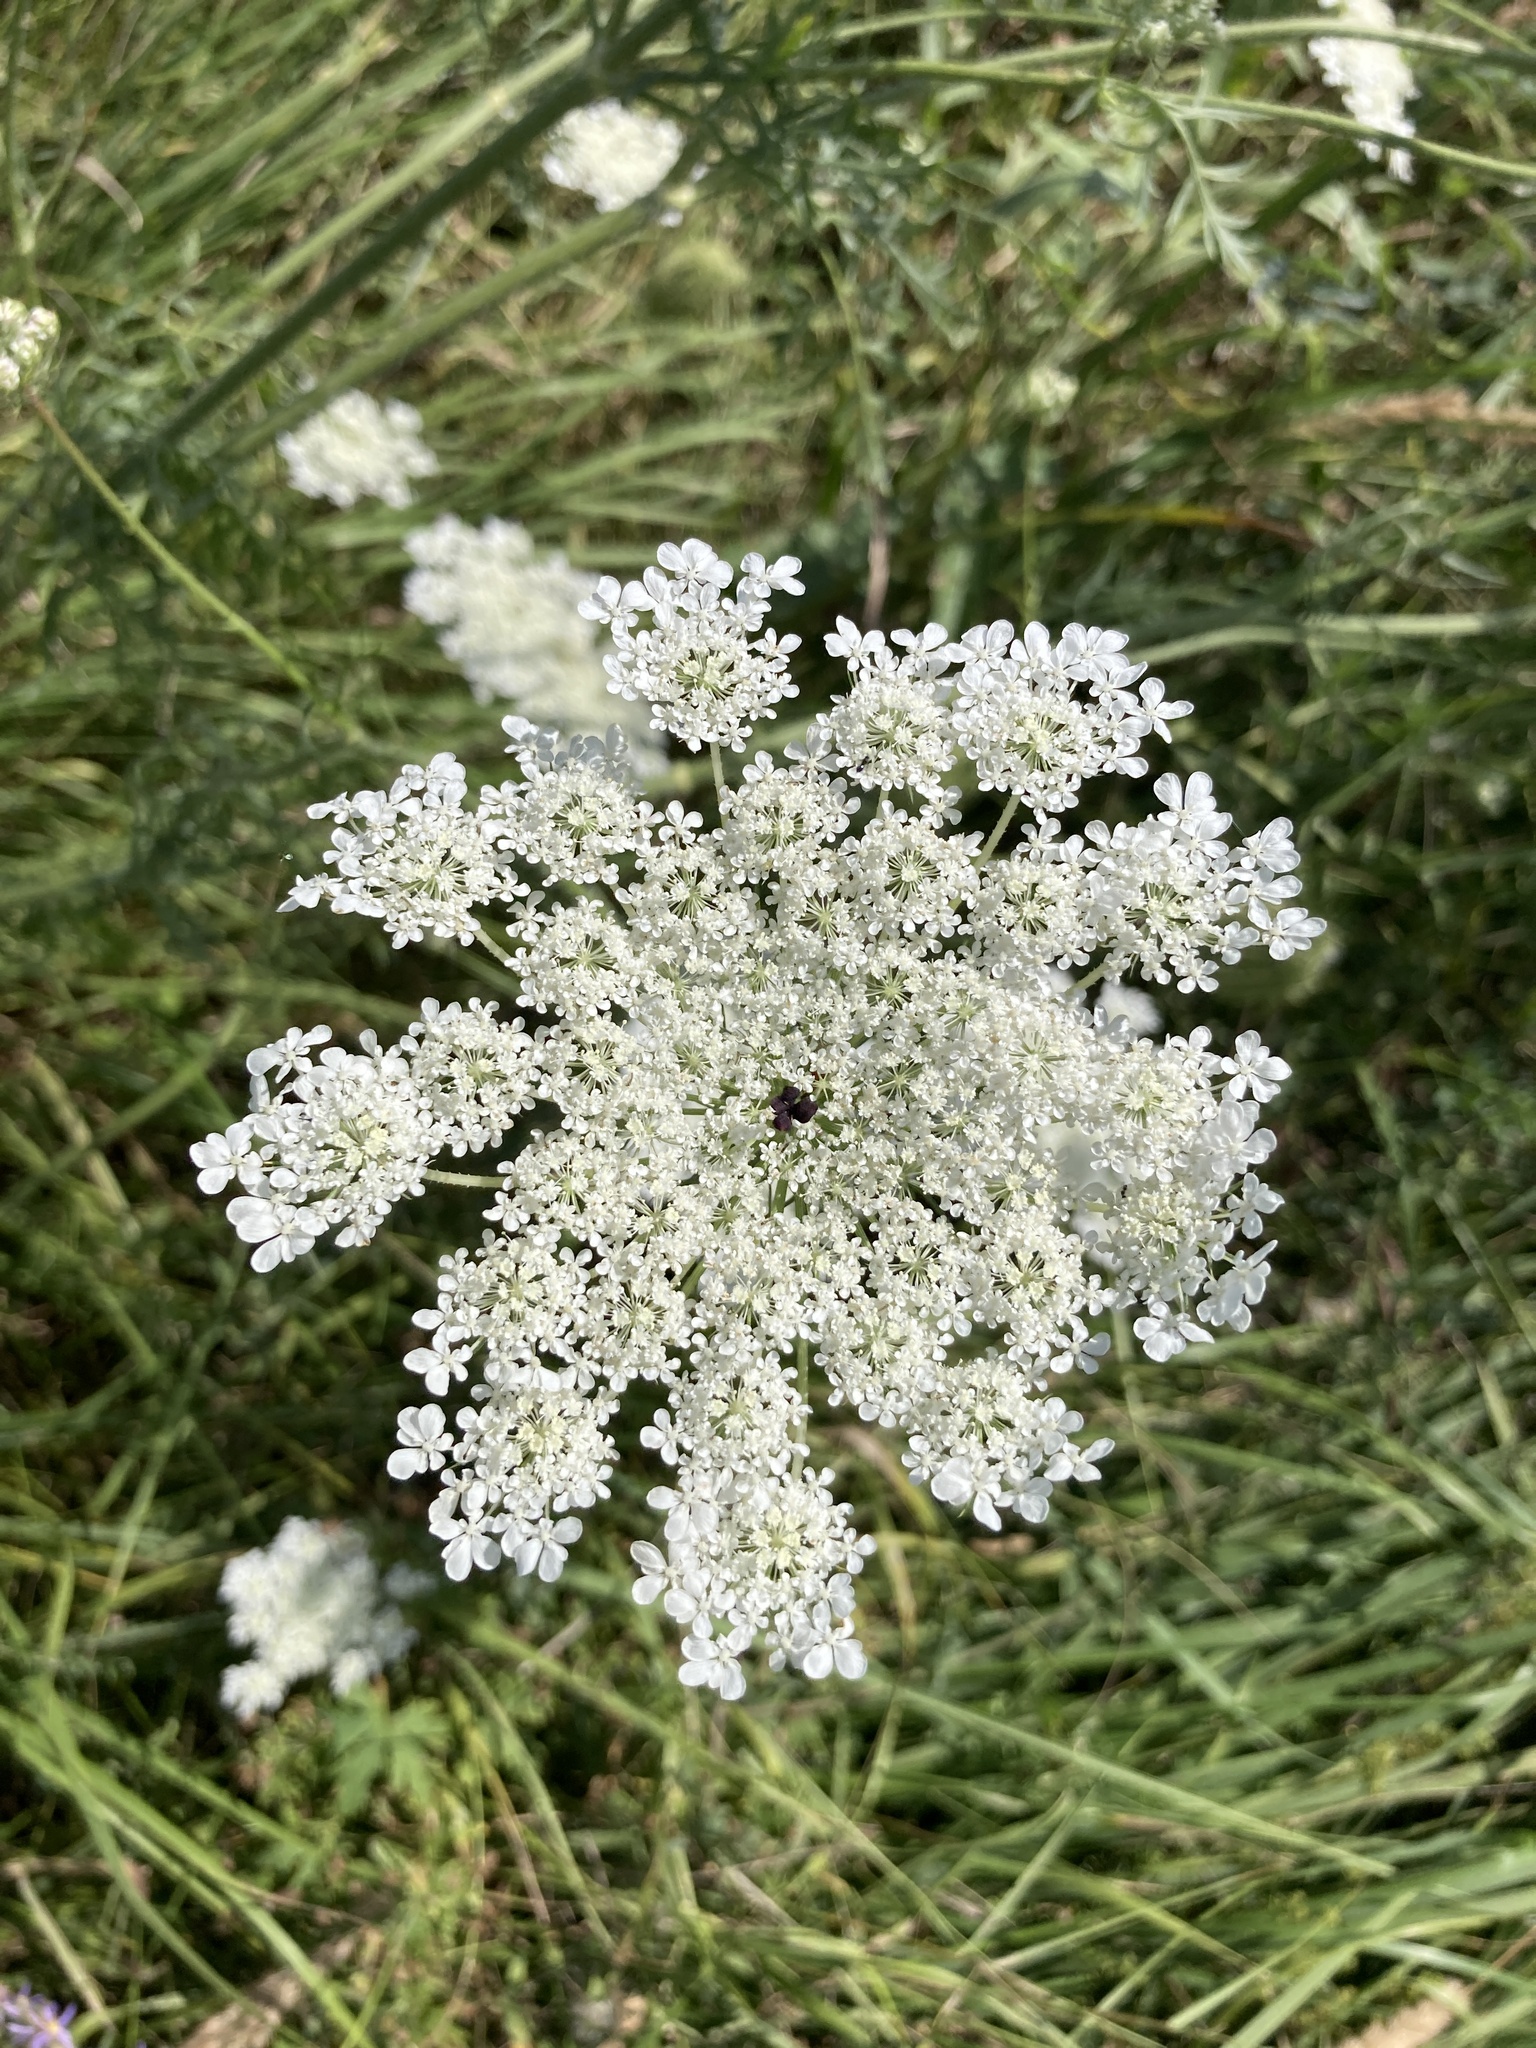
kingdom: Plantae
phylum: Tracheophyta
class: Magnoliopsida
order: Apiales
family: Apiaceae
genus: Daucus
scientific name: Daucus carota
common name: Wild carrot
